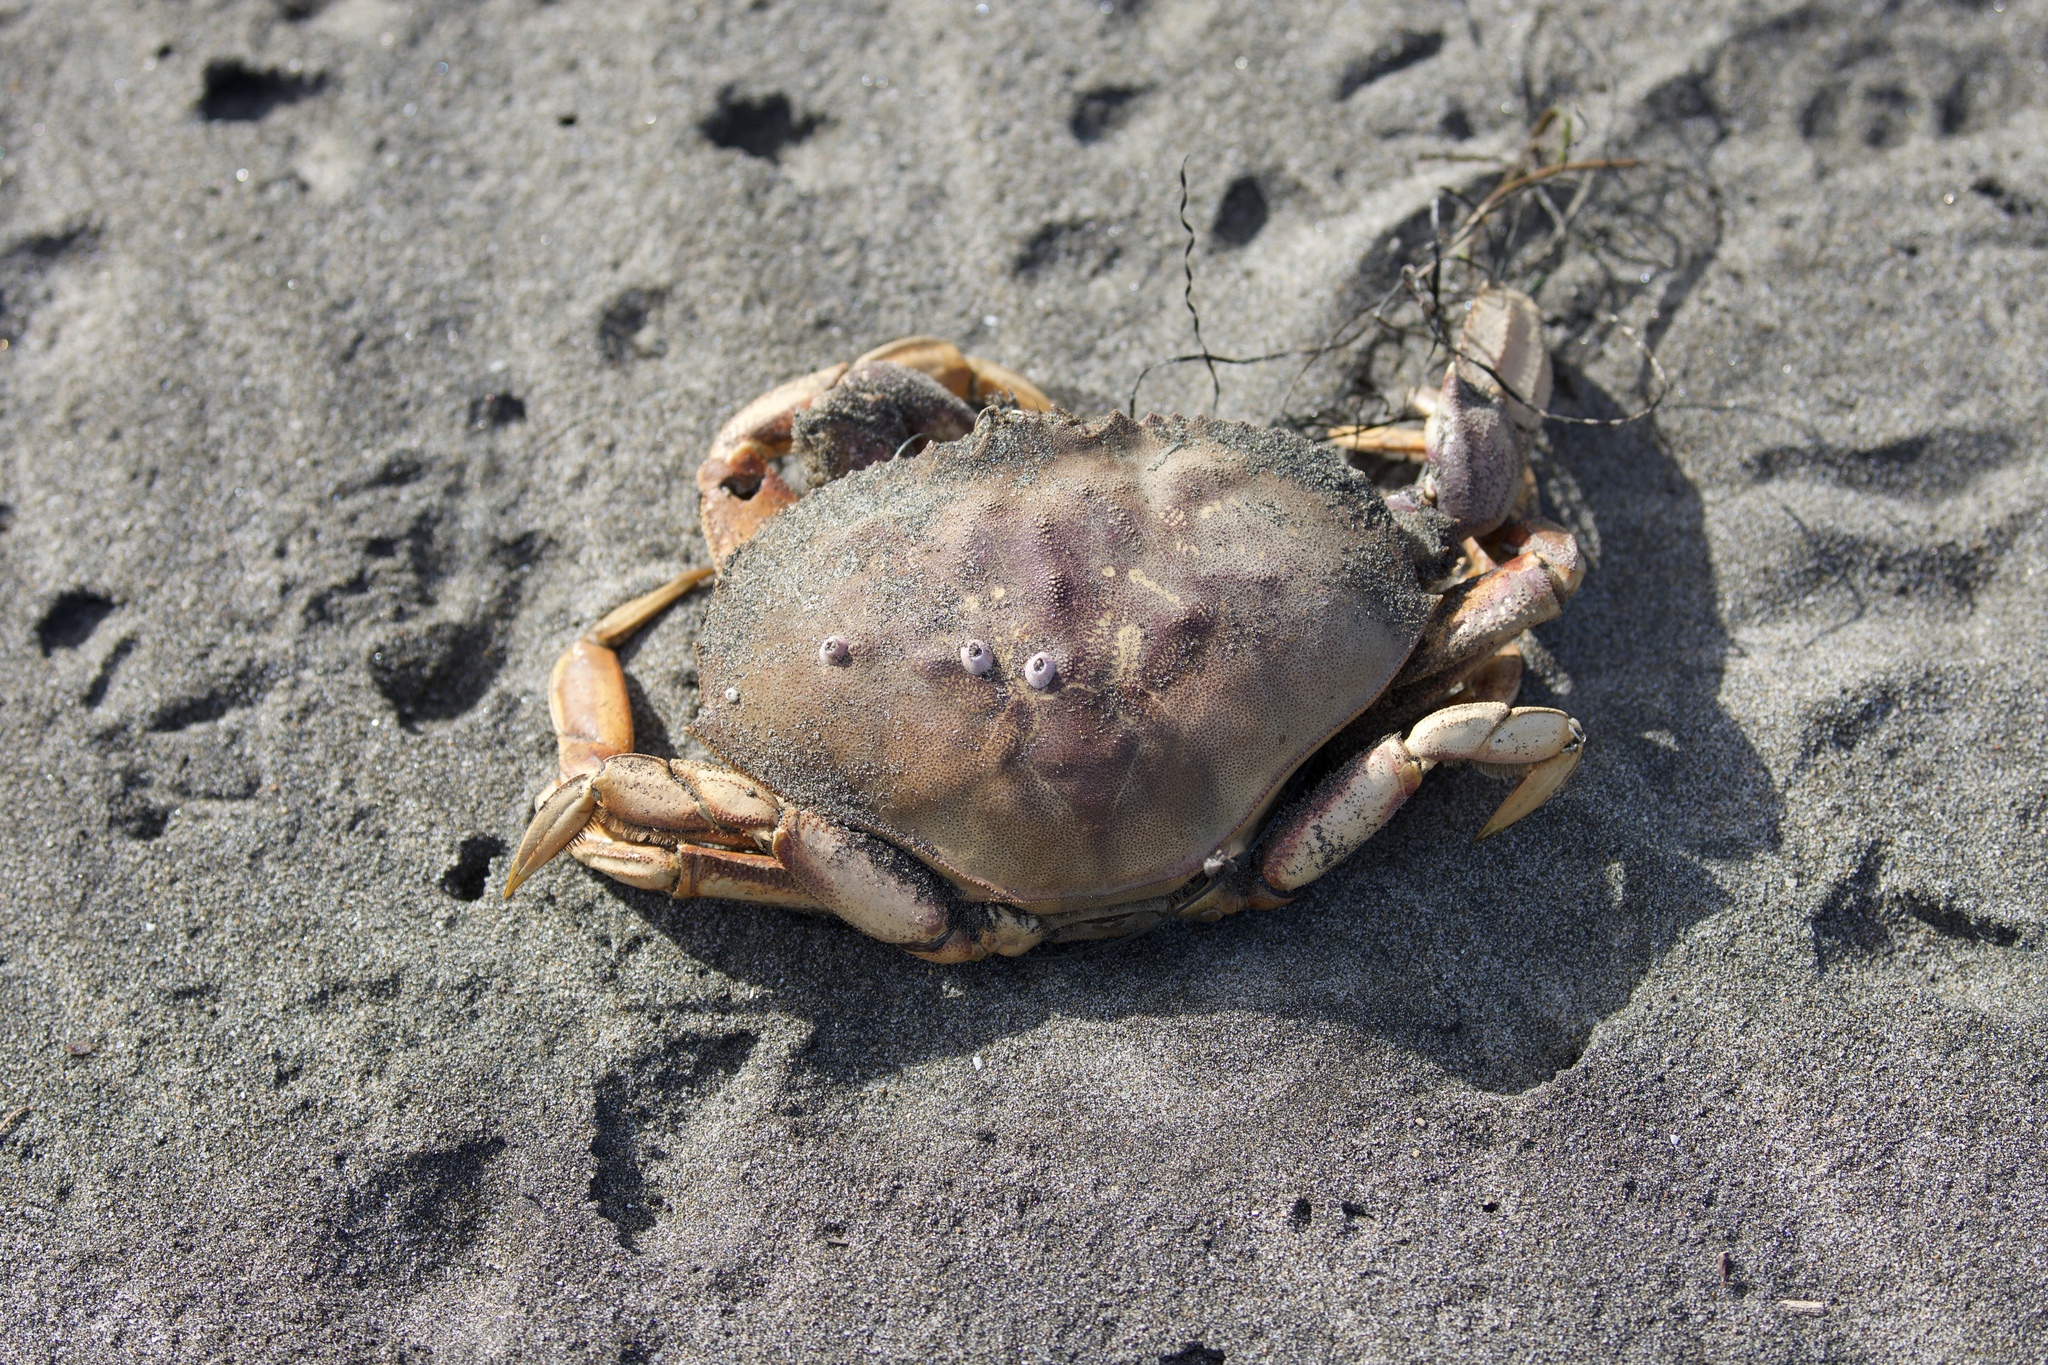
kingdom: Animalia
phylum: Arthropoda
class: Malacostraca
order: Decapoda
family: Cancridae
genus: Metacarcinus
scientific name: Metacarcinus magister
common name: Californian crab
